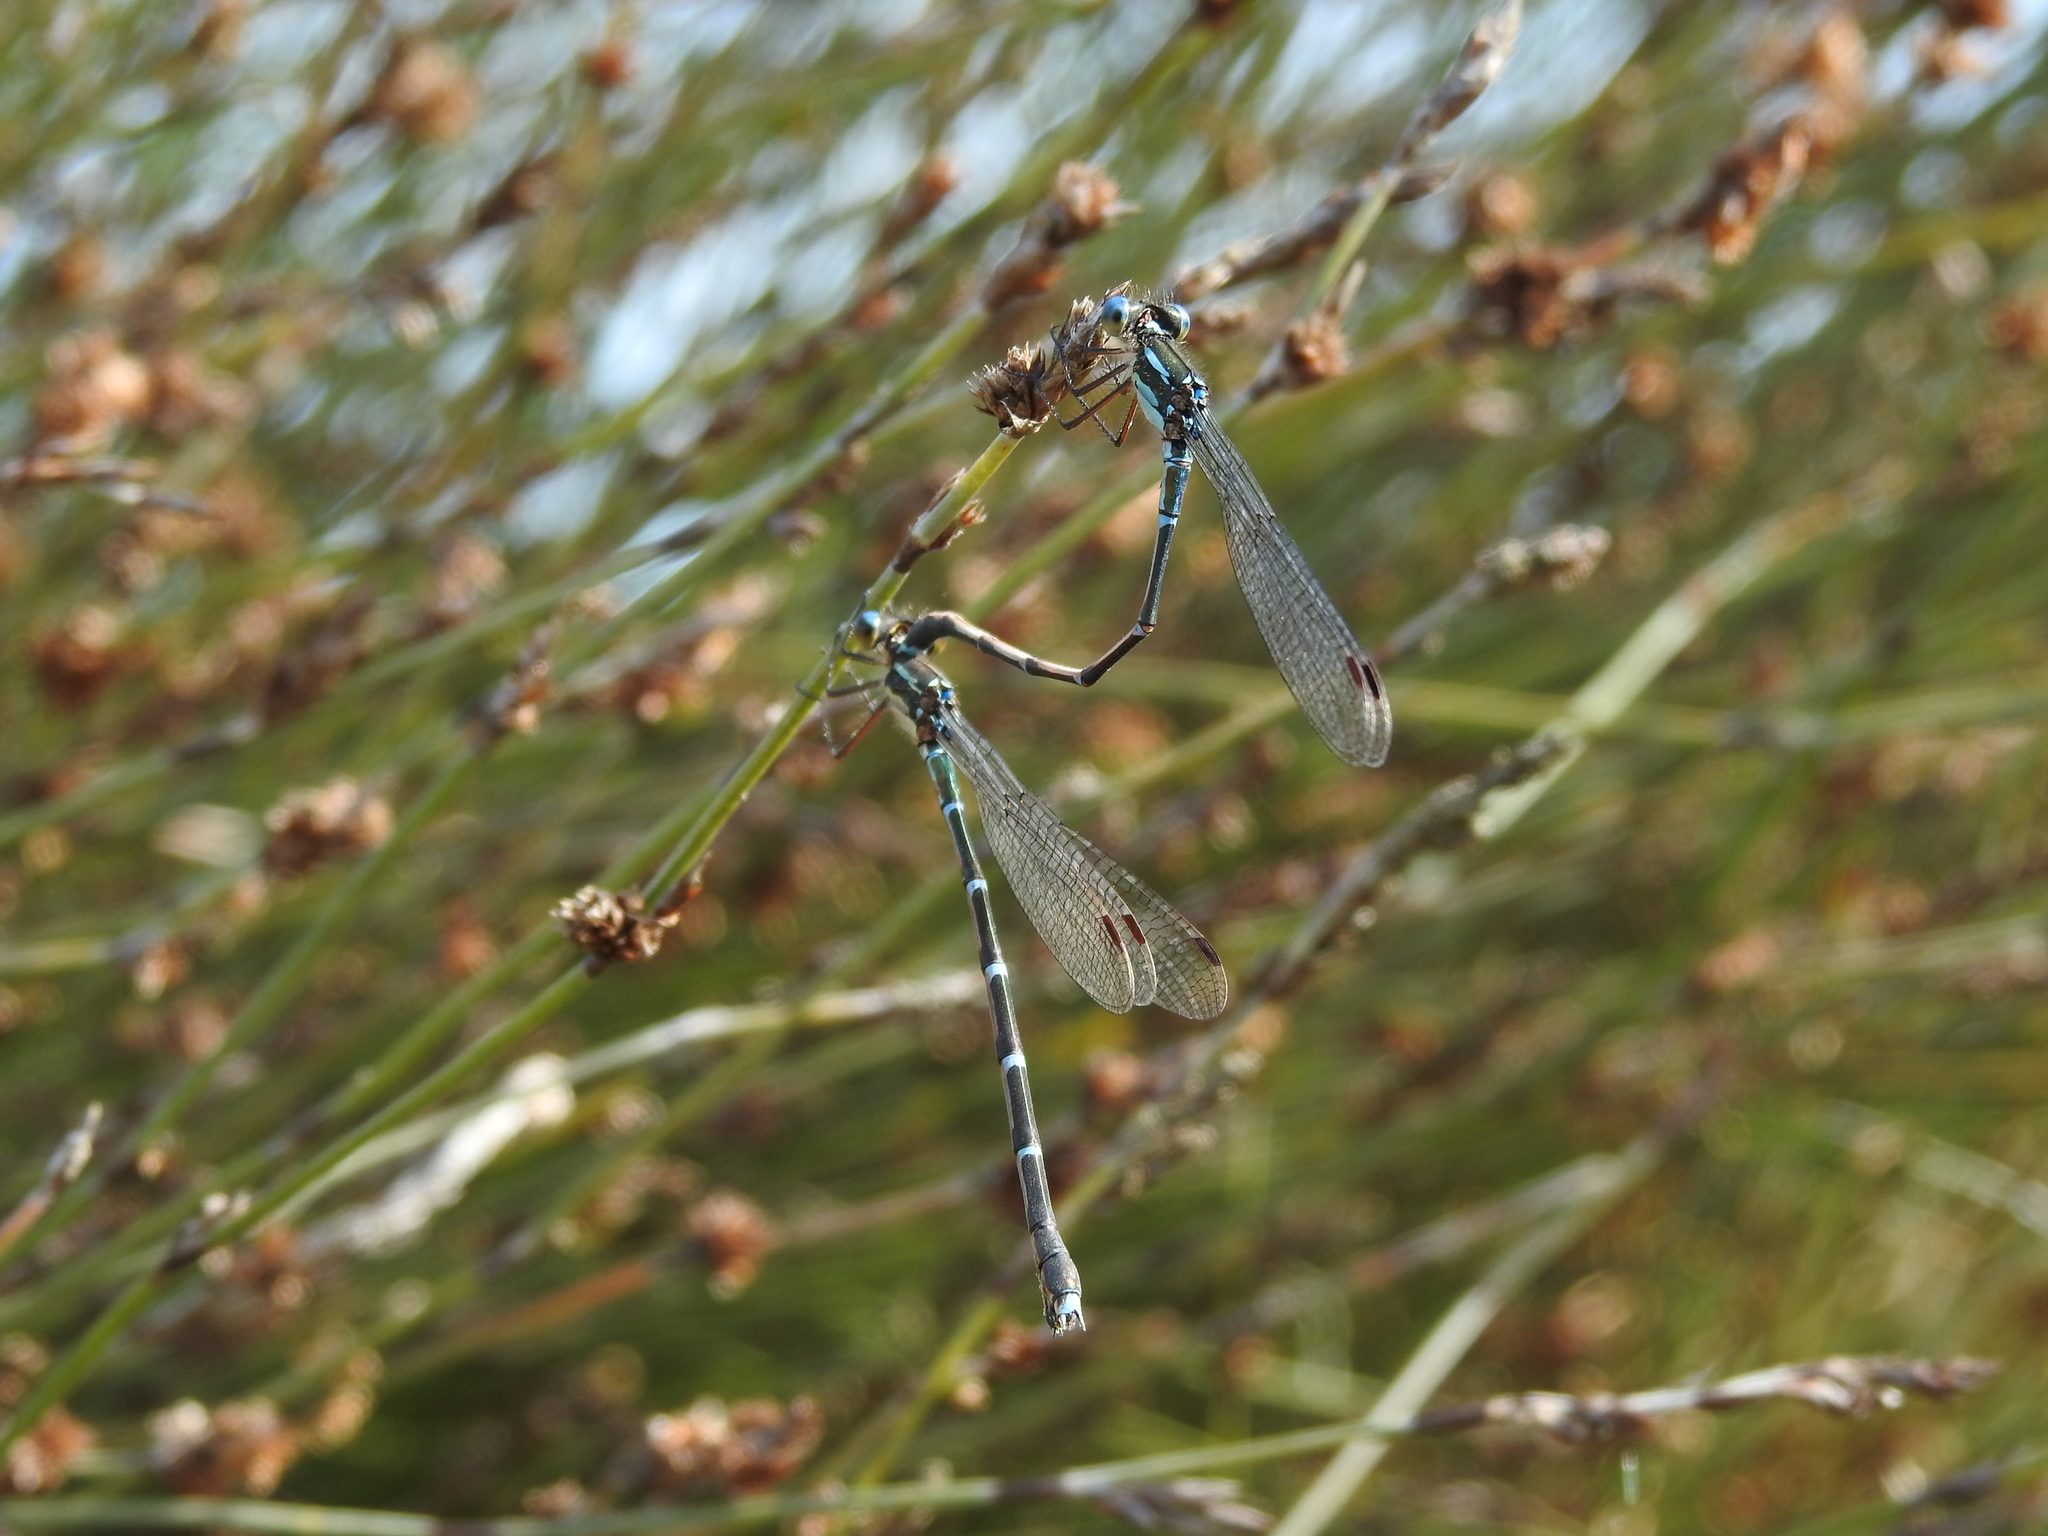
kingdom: Animalia
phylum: Arthropoda
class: Insecta
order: Odonata
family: Lestidae
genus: Austrolestes
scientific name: Austrolestes colensonis
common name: Blue damselfly
